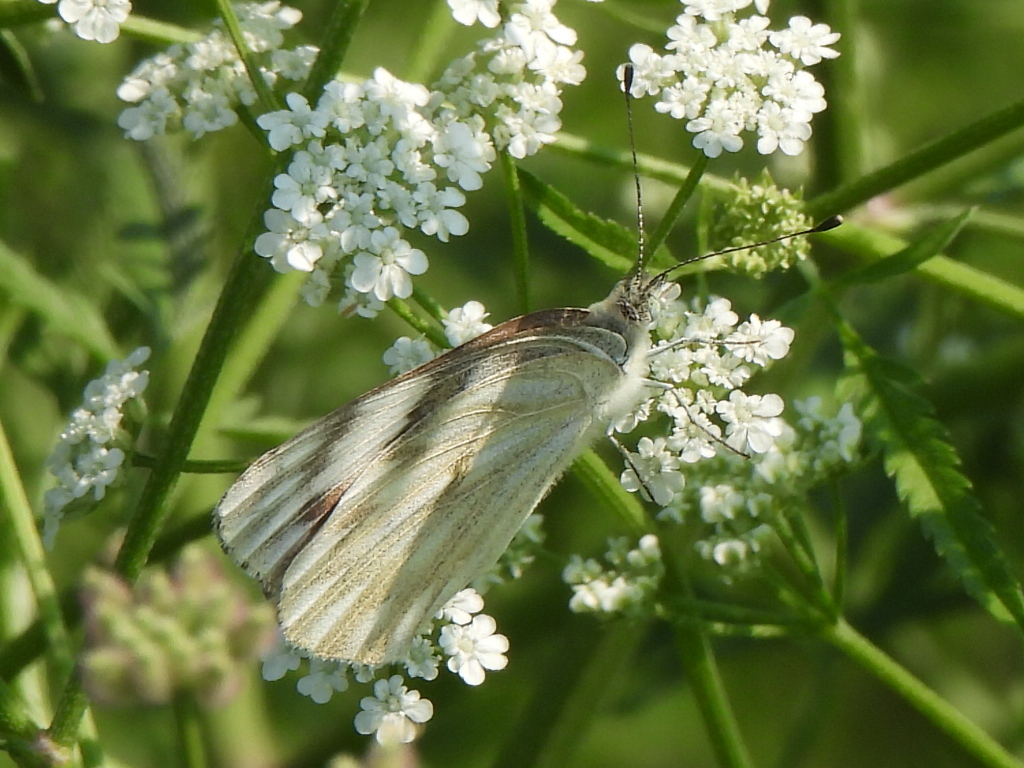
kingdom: Animalia
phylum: Arthropoda
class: Insecta
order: Lepidoptera
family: Pieridae
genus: Pontia
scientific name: Pontia protodice
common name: Checkered white
